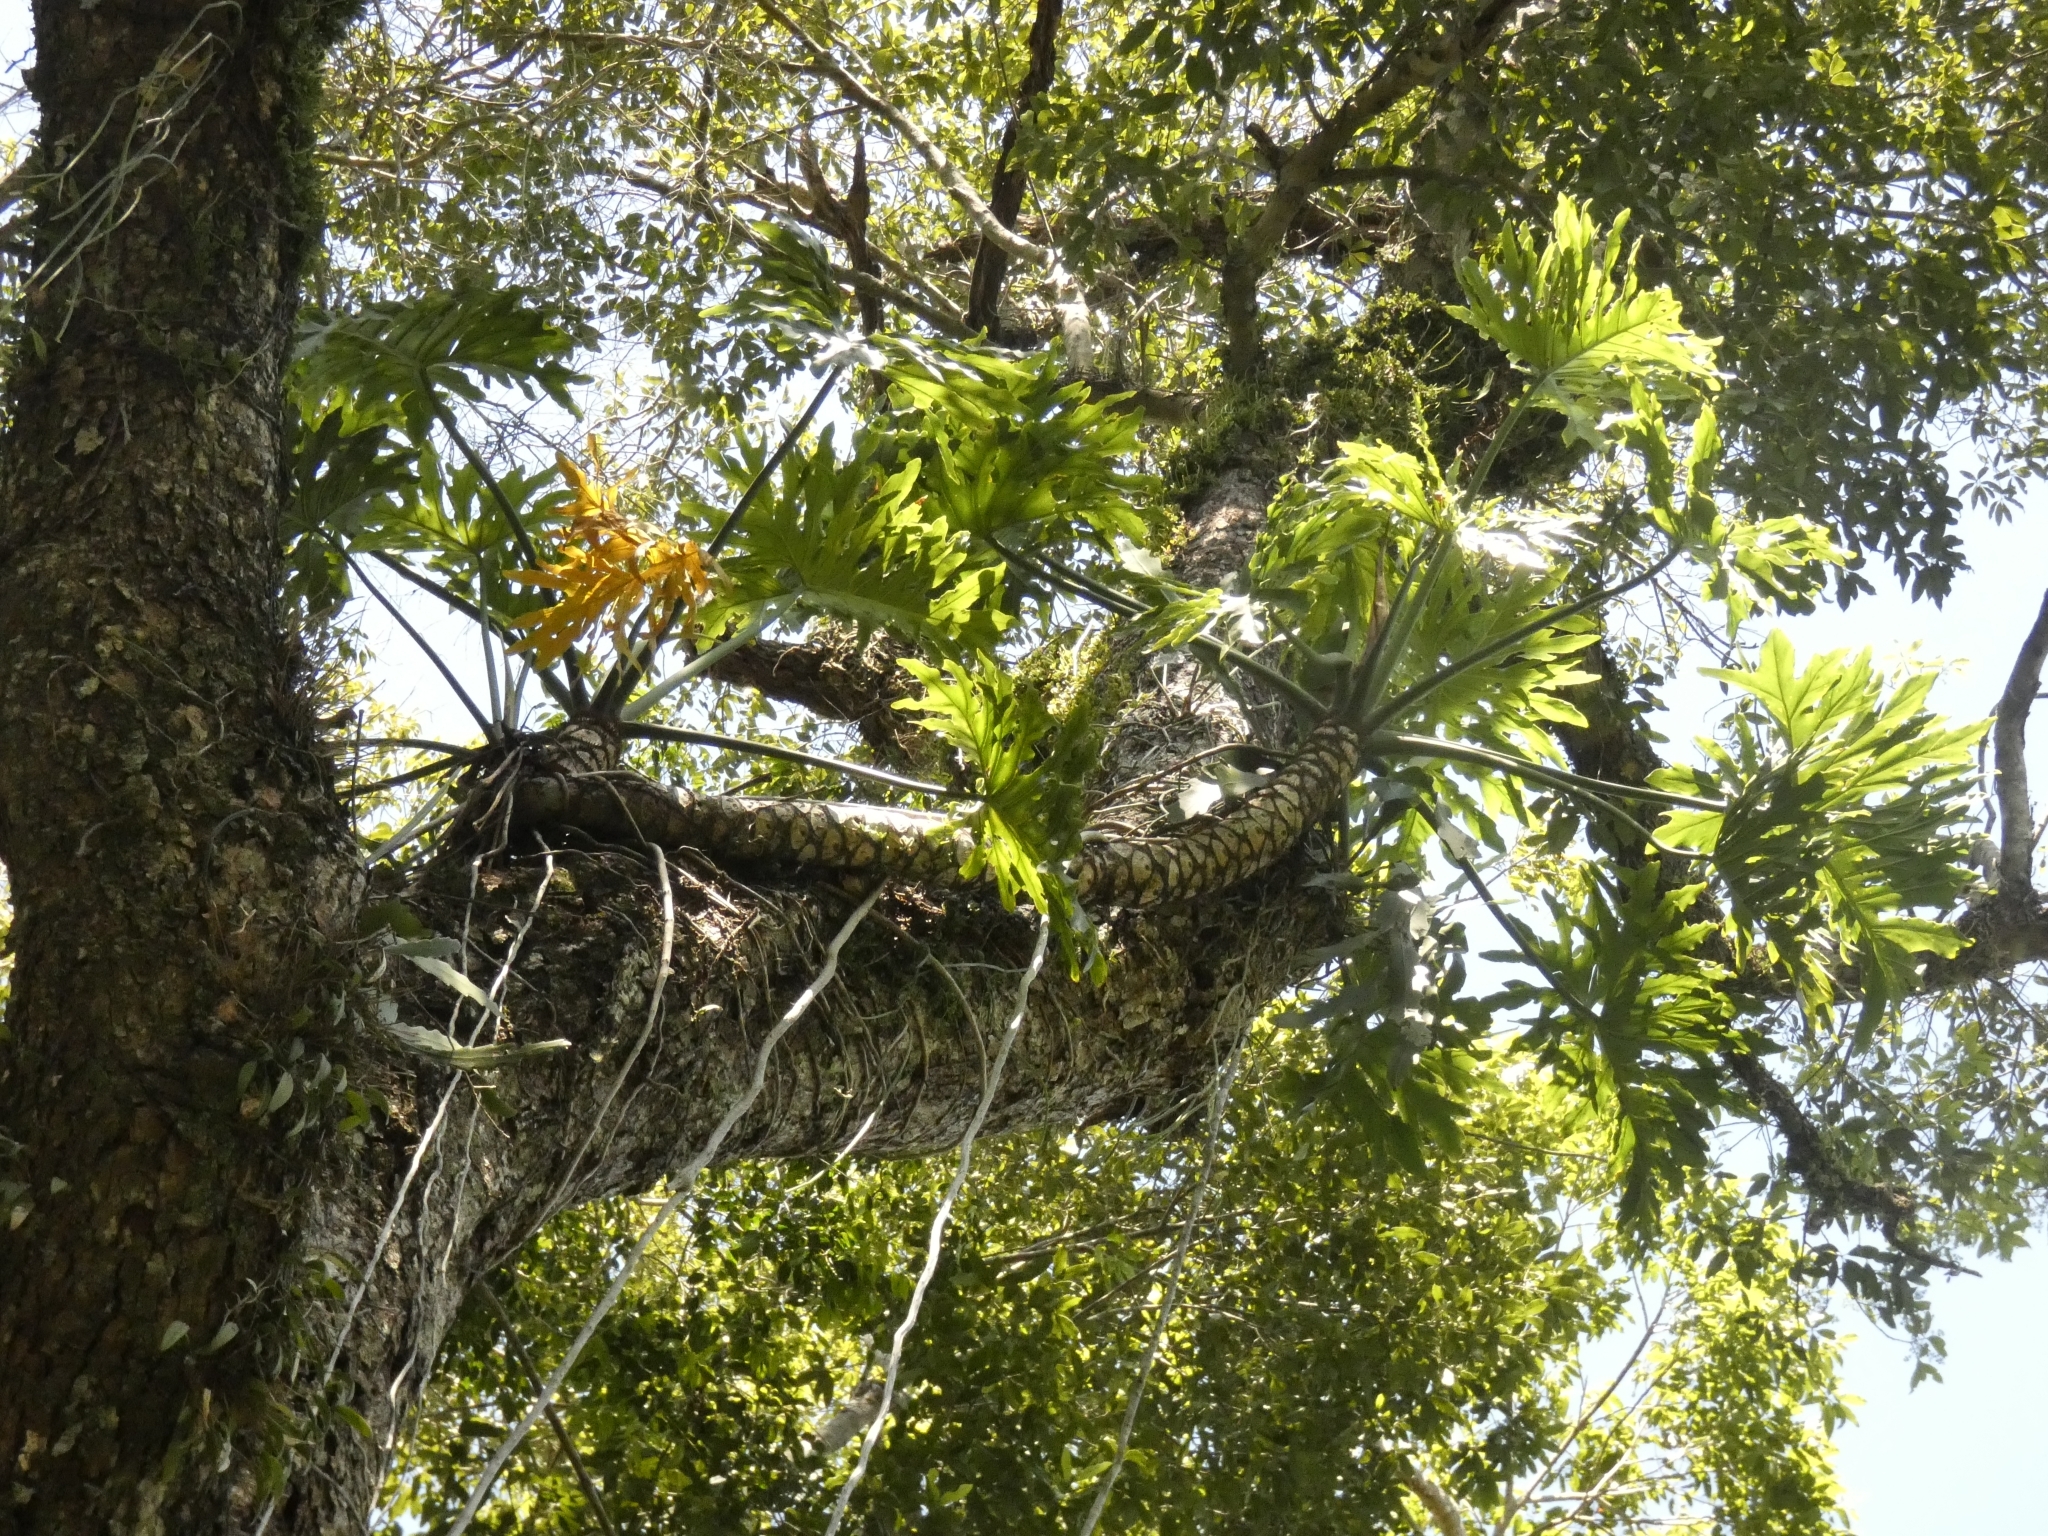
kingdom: Plantae
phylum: Tracheophyta
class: Liliopsida
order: Alismatales
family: Araceae
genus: Thaumatophyllum
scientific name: Thaumatophyllum bipinnatifidum
